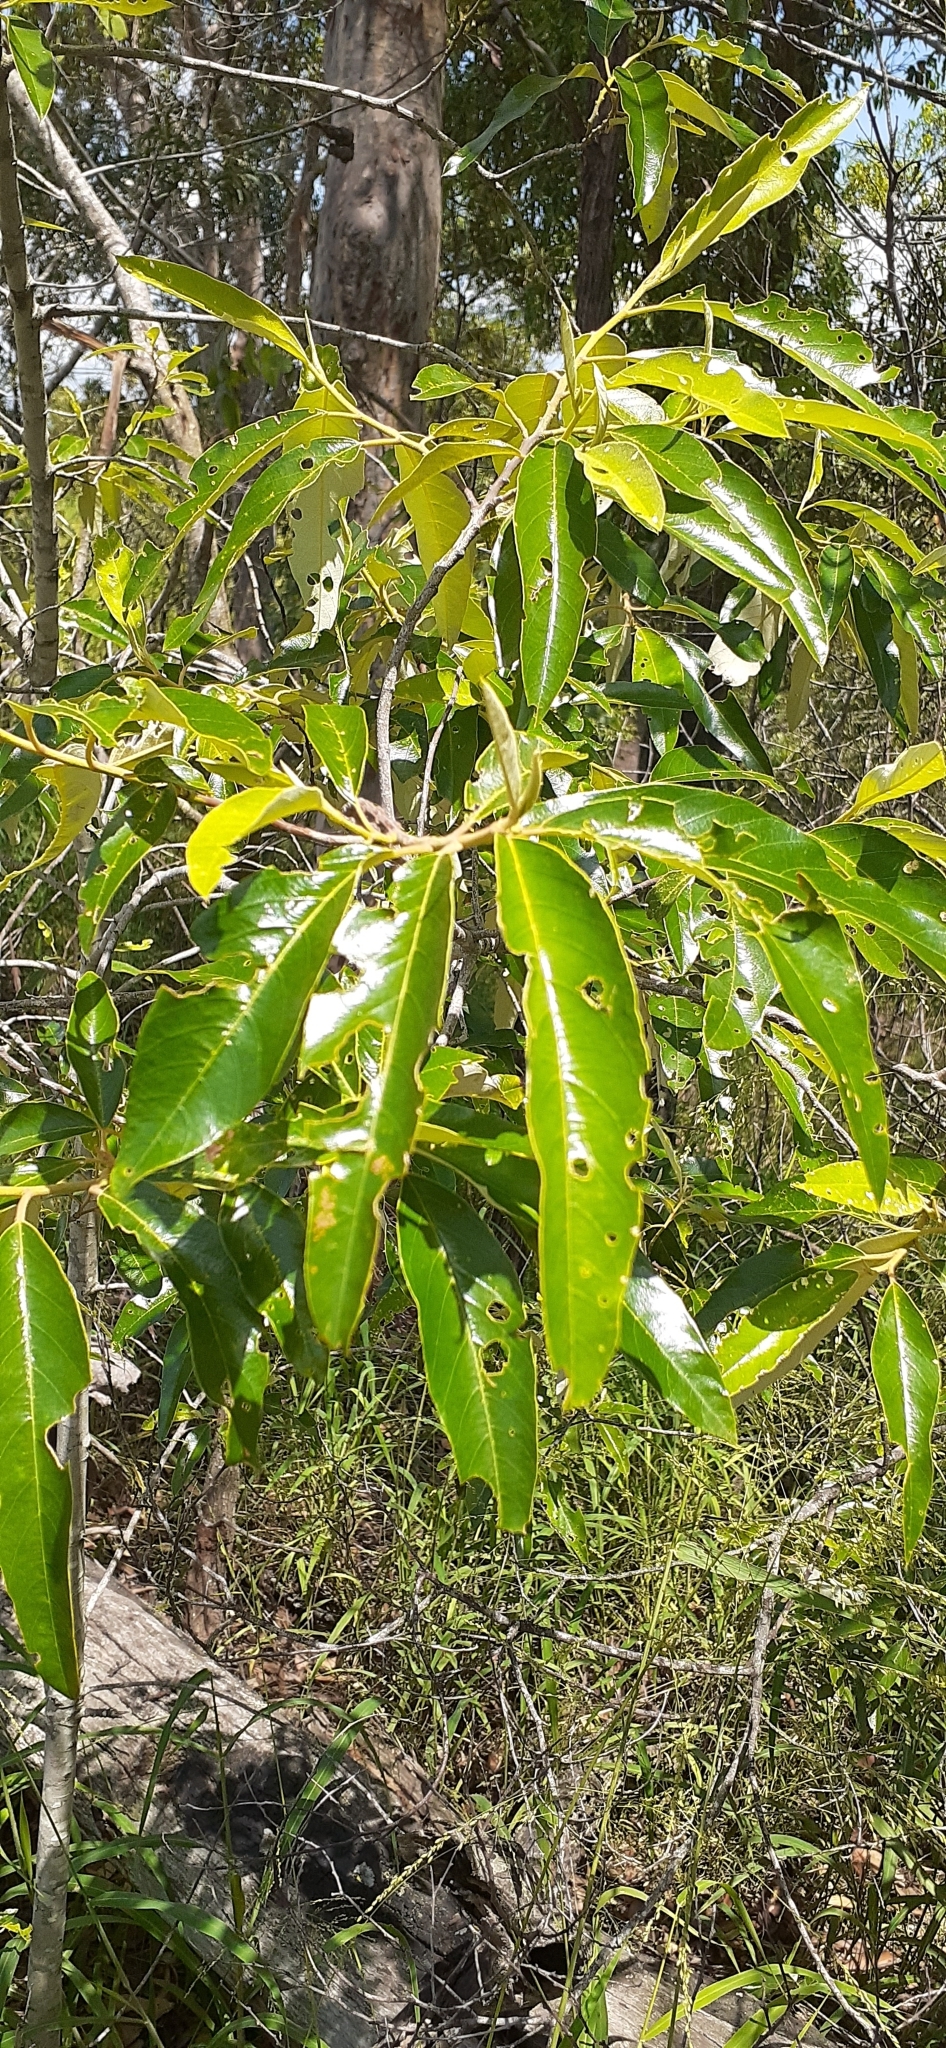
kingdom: Plantae
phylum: Tracheophyta
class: Magnoliopsida
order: Rosales
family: Rhamnaceae
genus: Alphitonia
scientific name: Alphitonia excelsa
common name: Red ash
